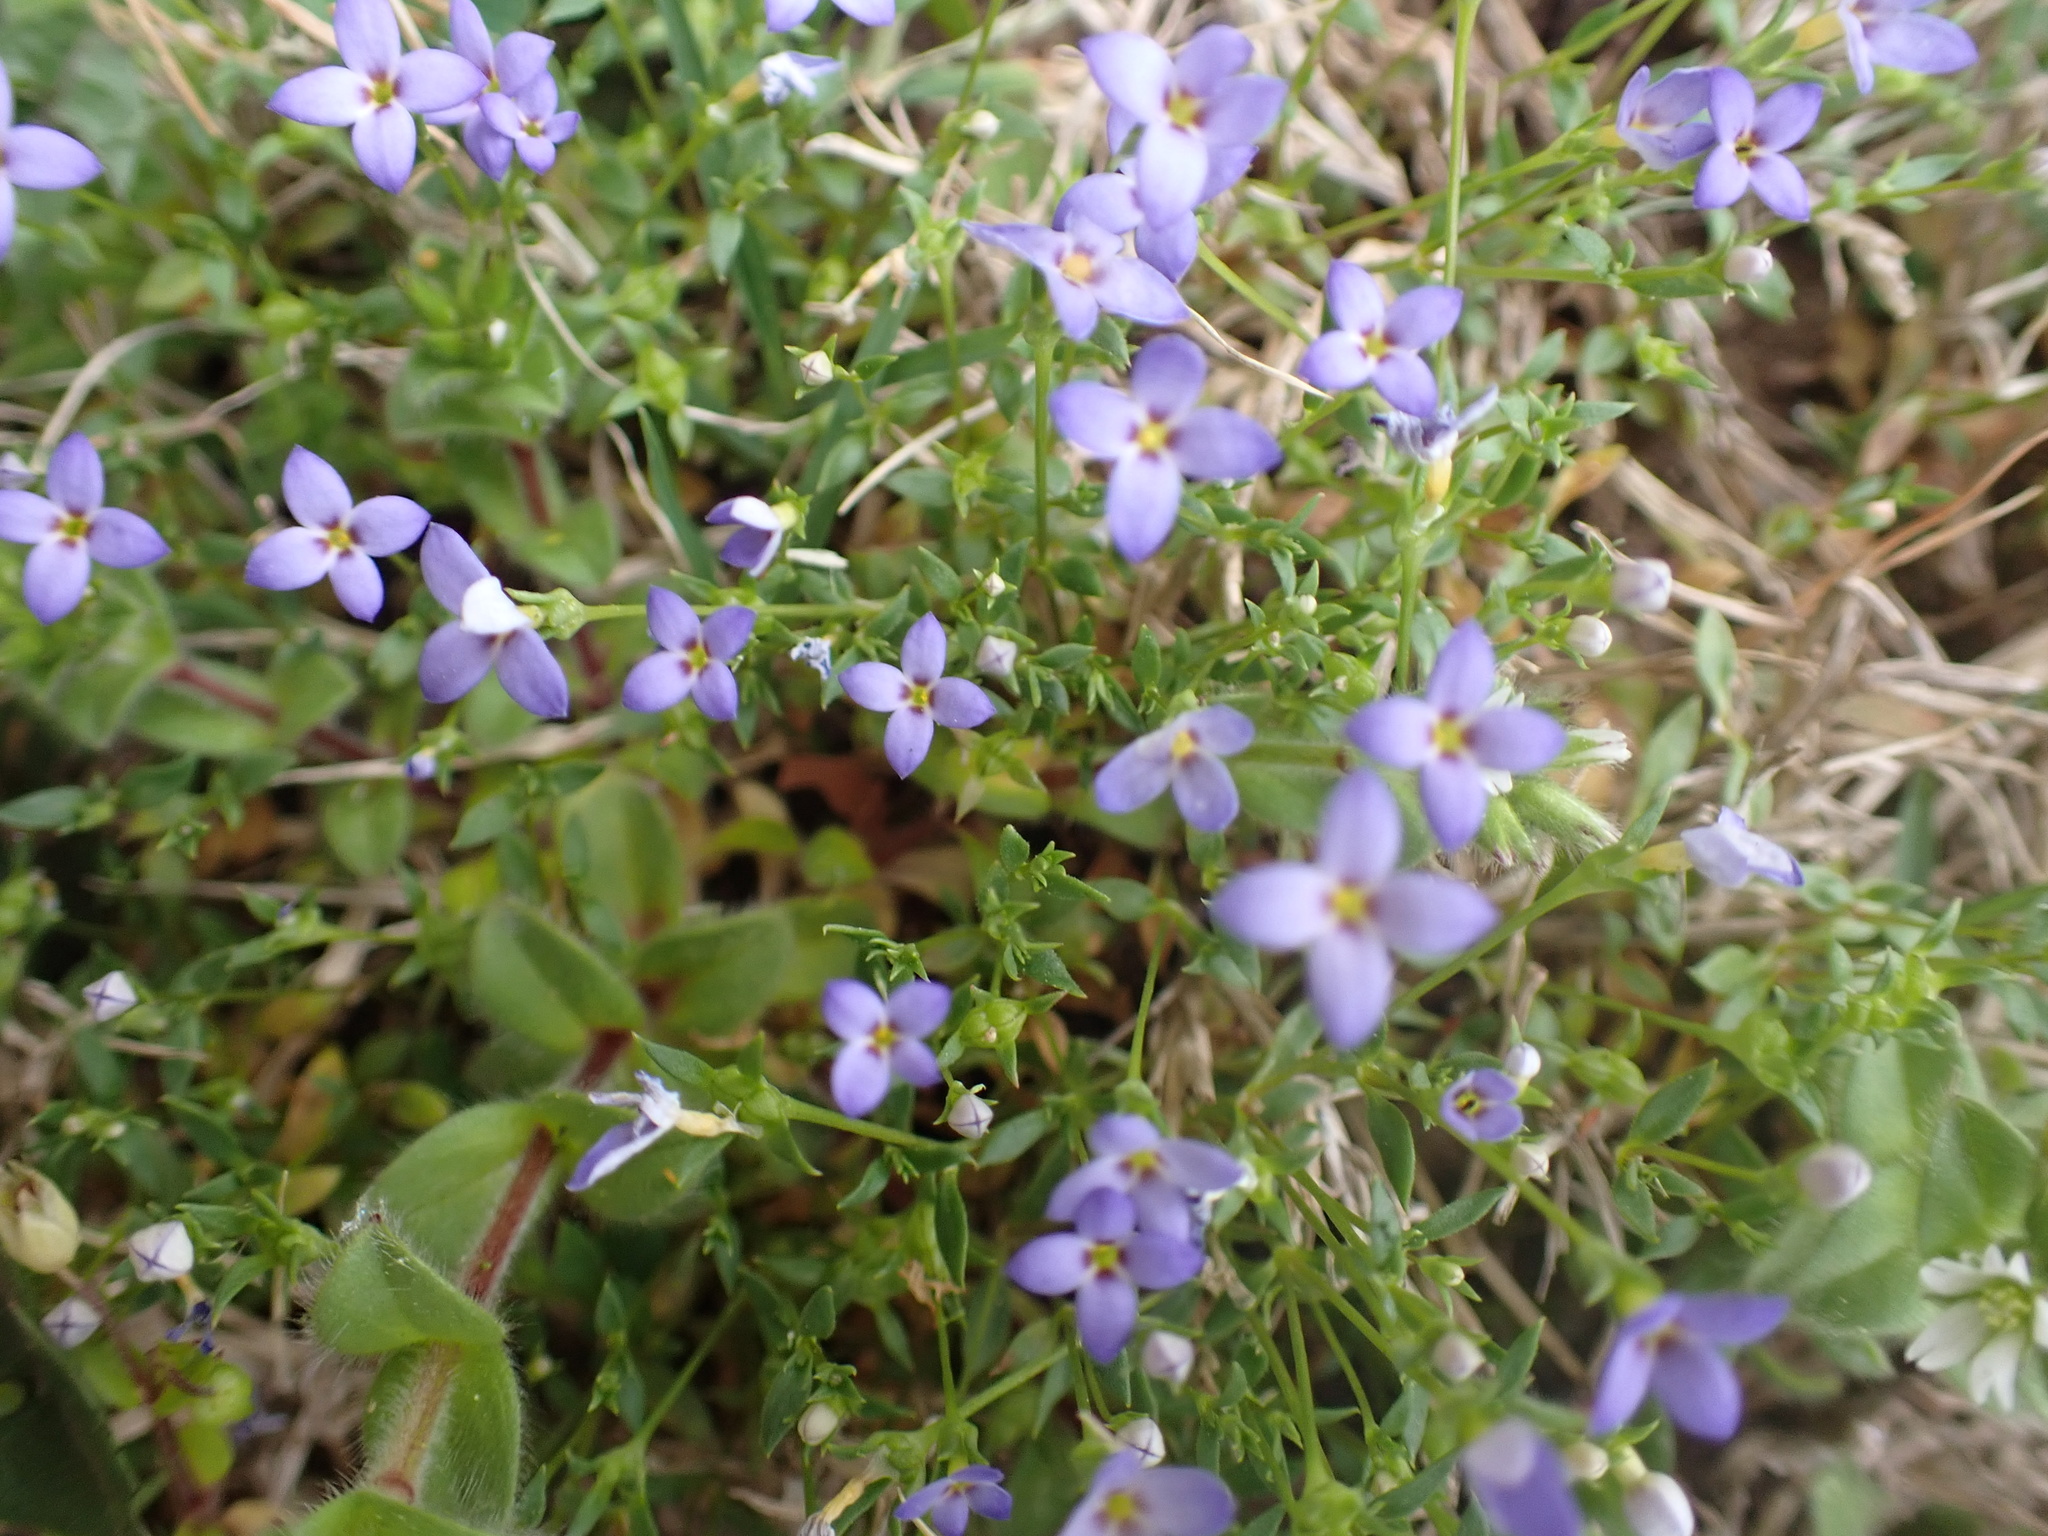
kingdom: Plantae
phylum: Tracheophyta
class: Magnoliopsida
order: Gentianales
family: Rubiaceae
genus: Houstonia
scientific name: Houstonia pusilla
